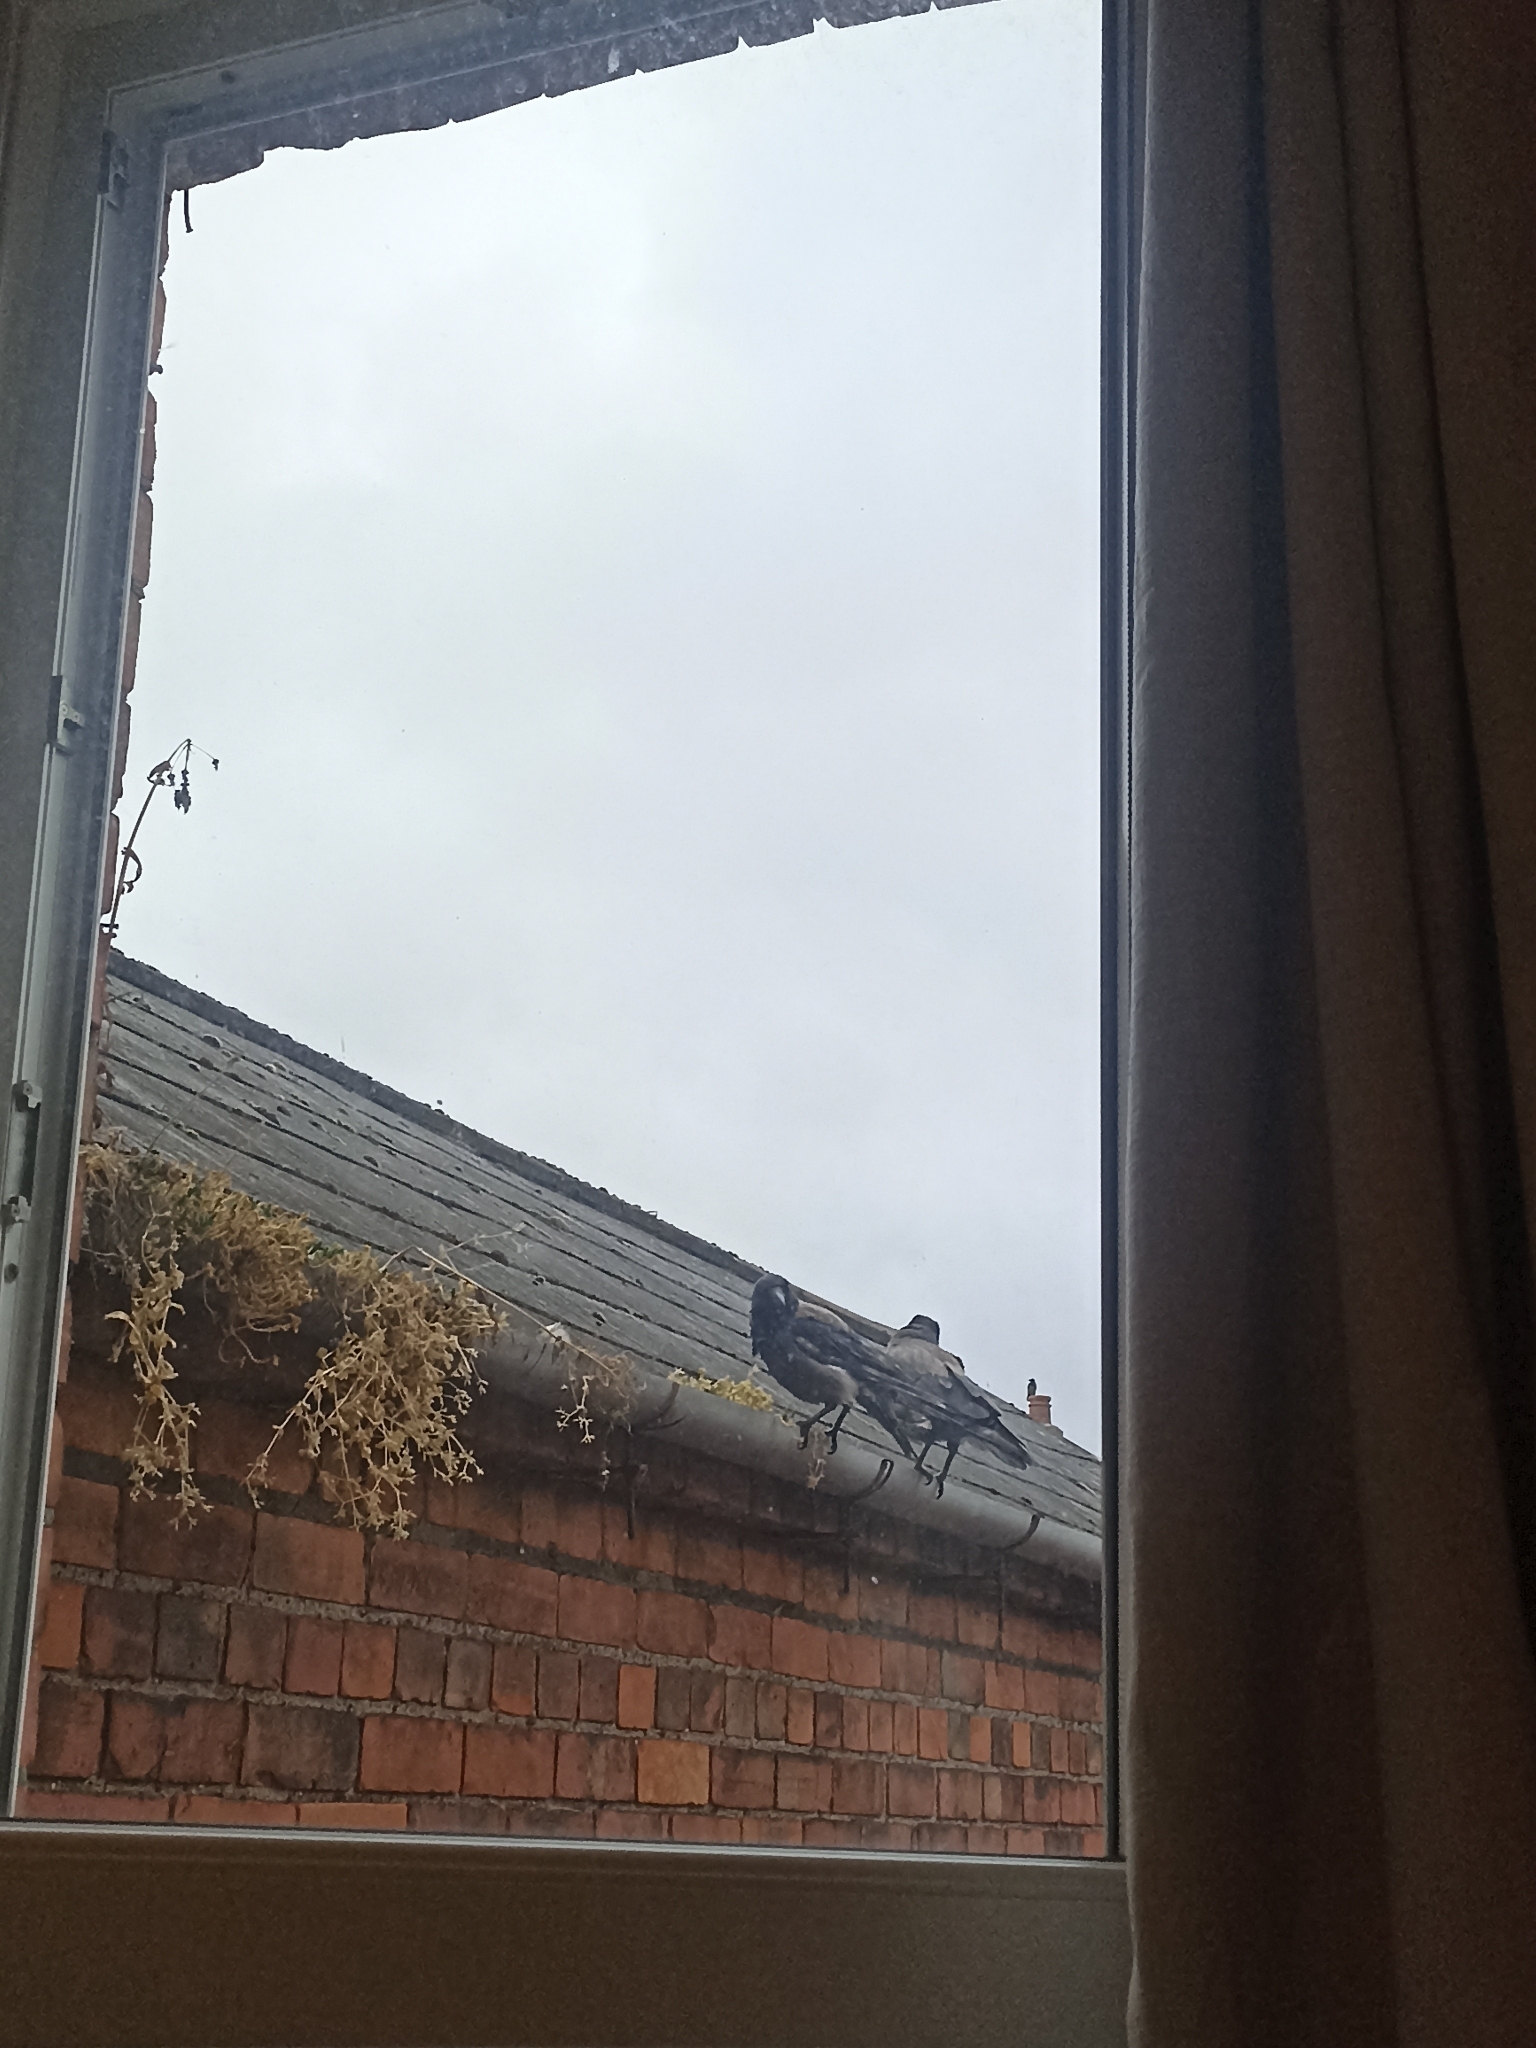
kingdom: Animalia
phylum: Chordata
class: Aves
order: Passeriformes
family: Corvidae
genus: Corvus
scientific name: Corvus cornix
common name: Hooded crow
